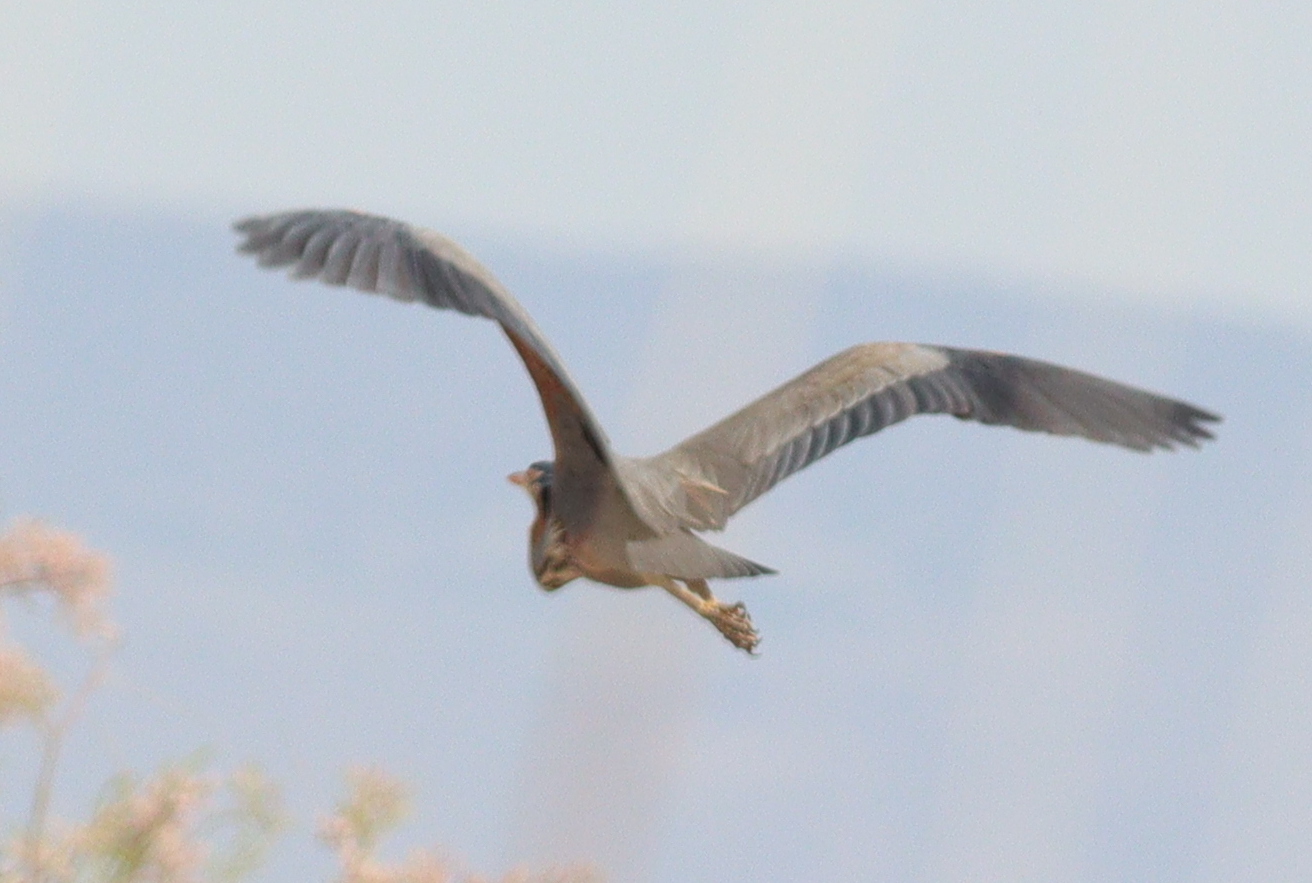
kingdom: Animalia
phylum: Chordata
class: Aves
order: Pelecaniformes
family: Ardeidae
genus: Ardea
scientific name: Ardea purpurea
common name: Purple heron
